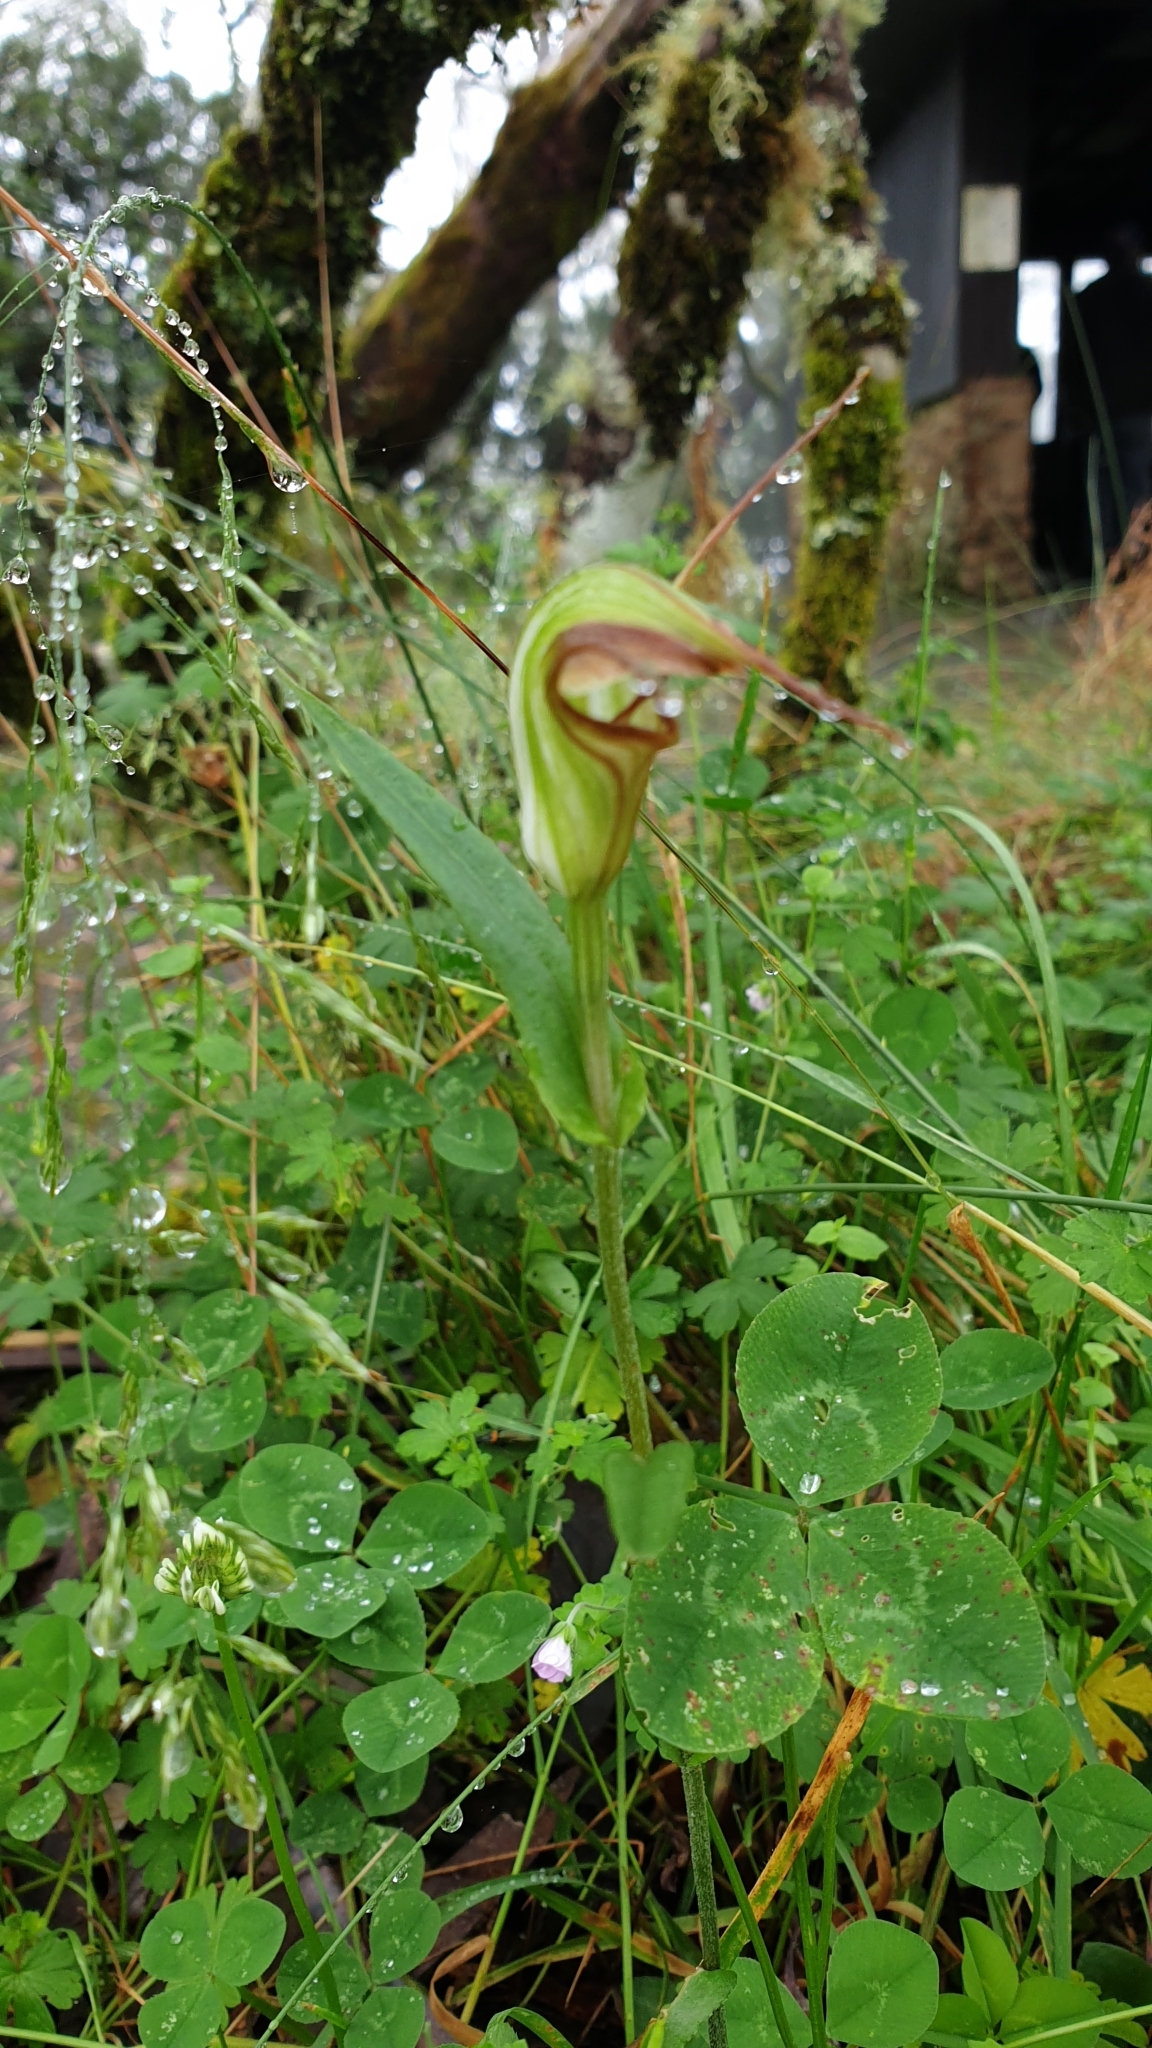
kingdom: Plantae
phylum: Tracheophyta
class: Liliopsida
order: Asparagales
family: Orchidaceae
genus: Pterostylis
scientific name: Pterostylis abrupta
